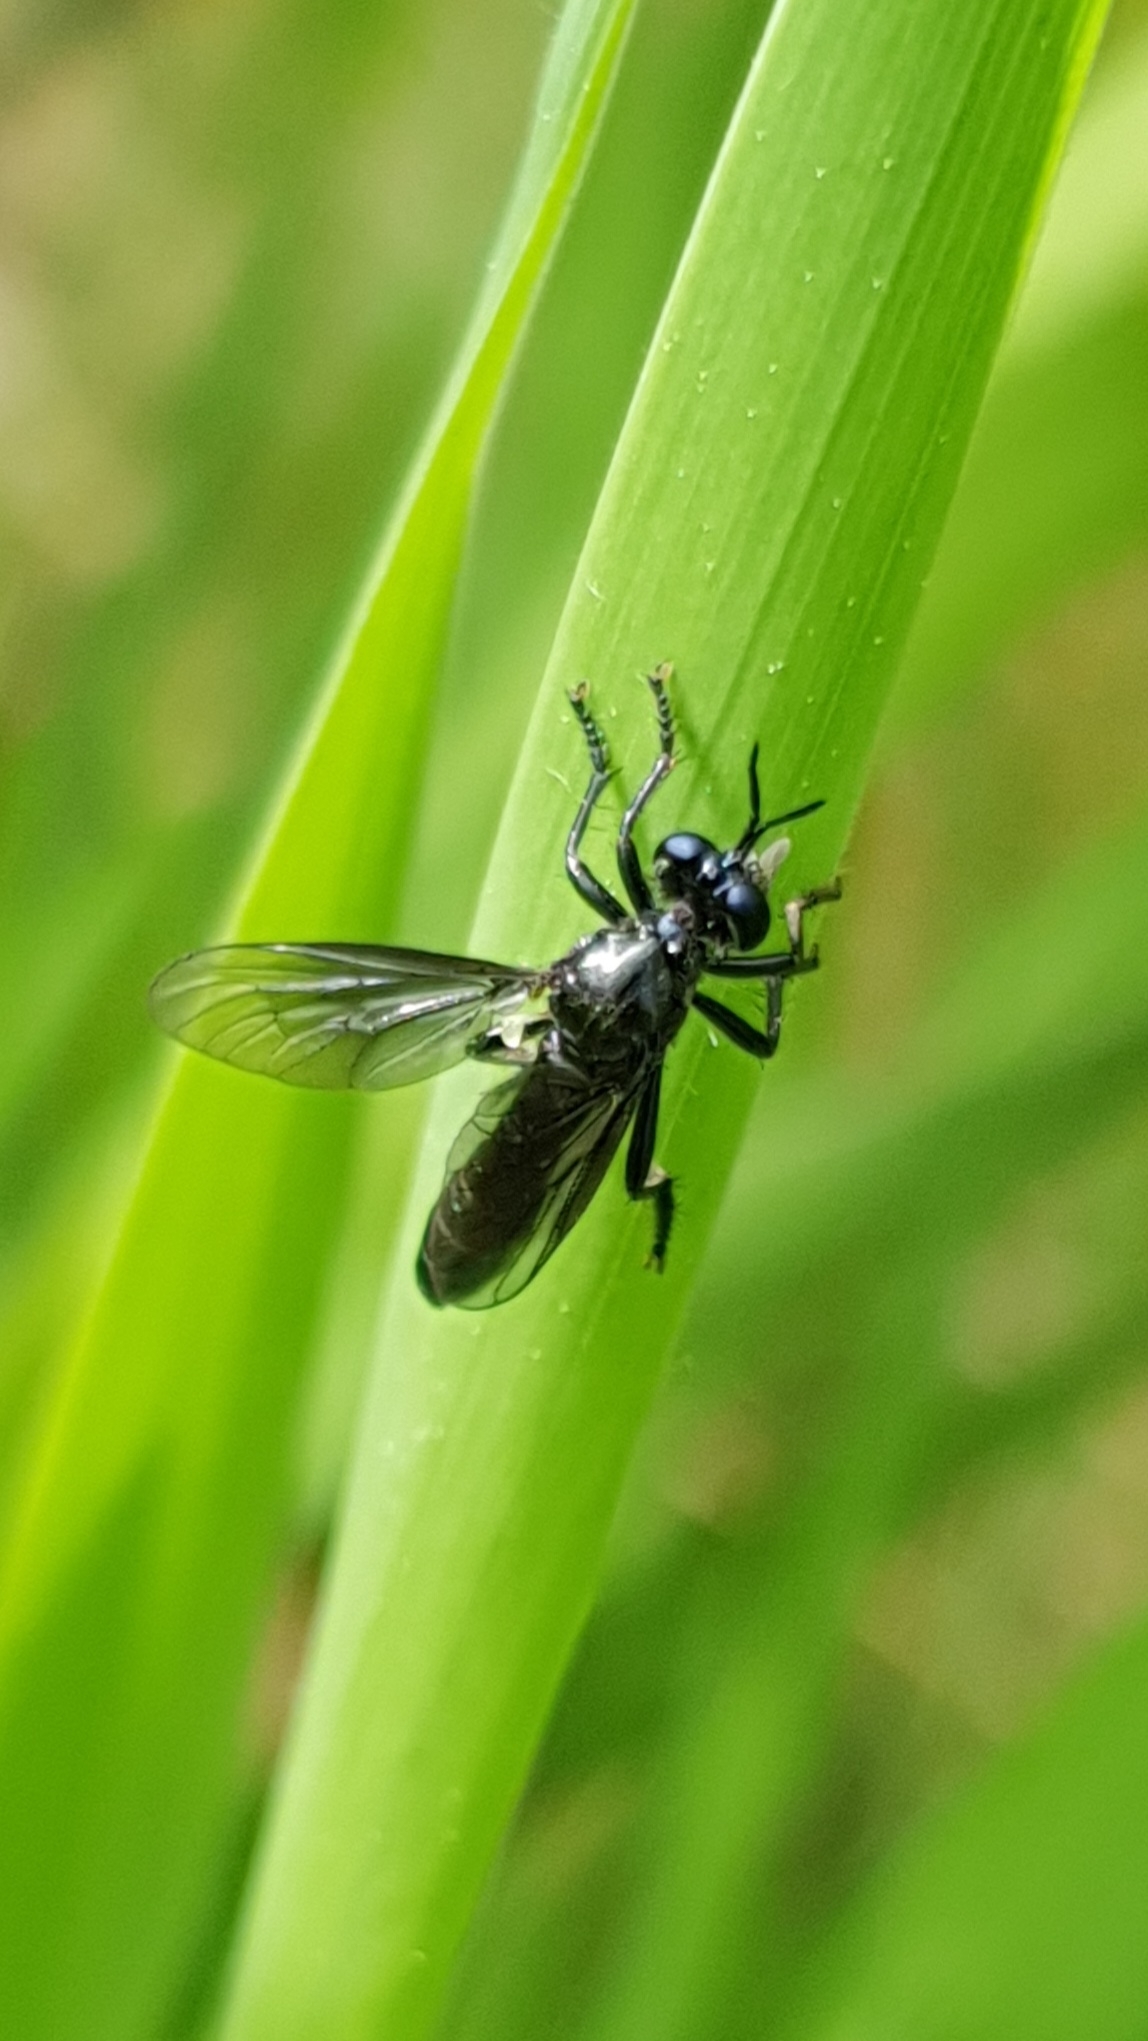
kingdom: Animalia
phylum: Arthropoda
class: Insecta
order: Diptera
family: Asilidae
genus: Dioctria
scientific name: Dioctria atricapilla
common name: Violet black-legged
